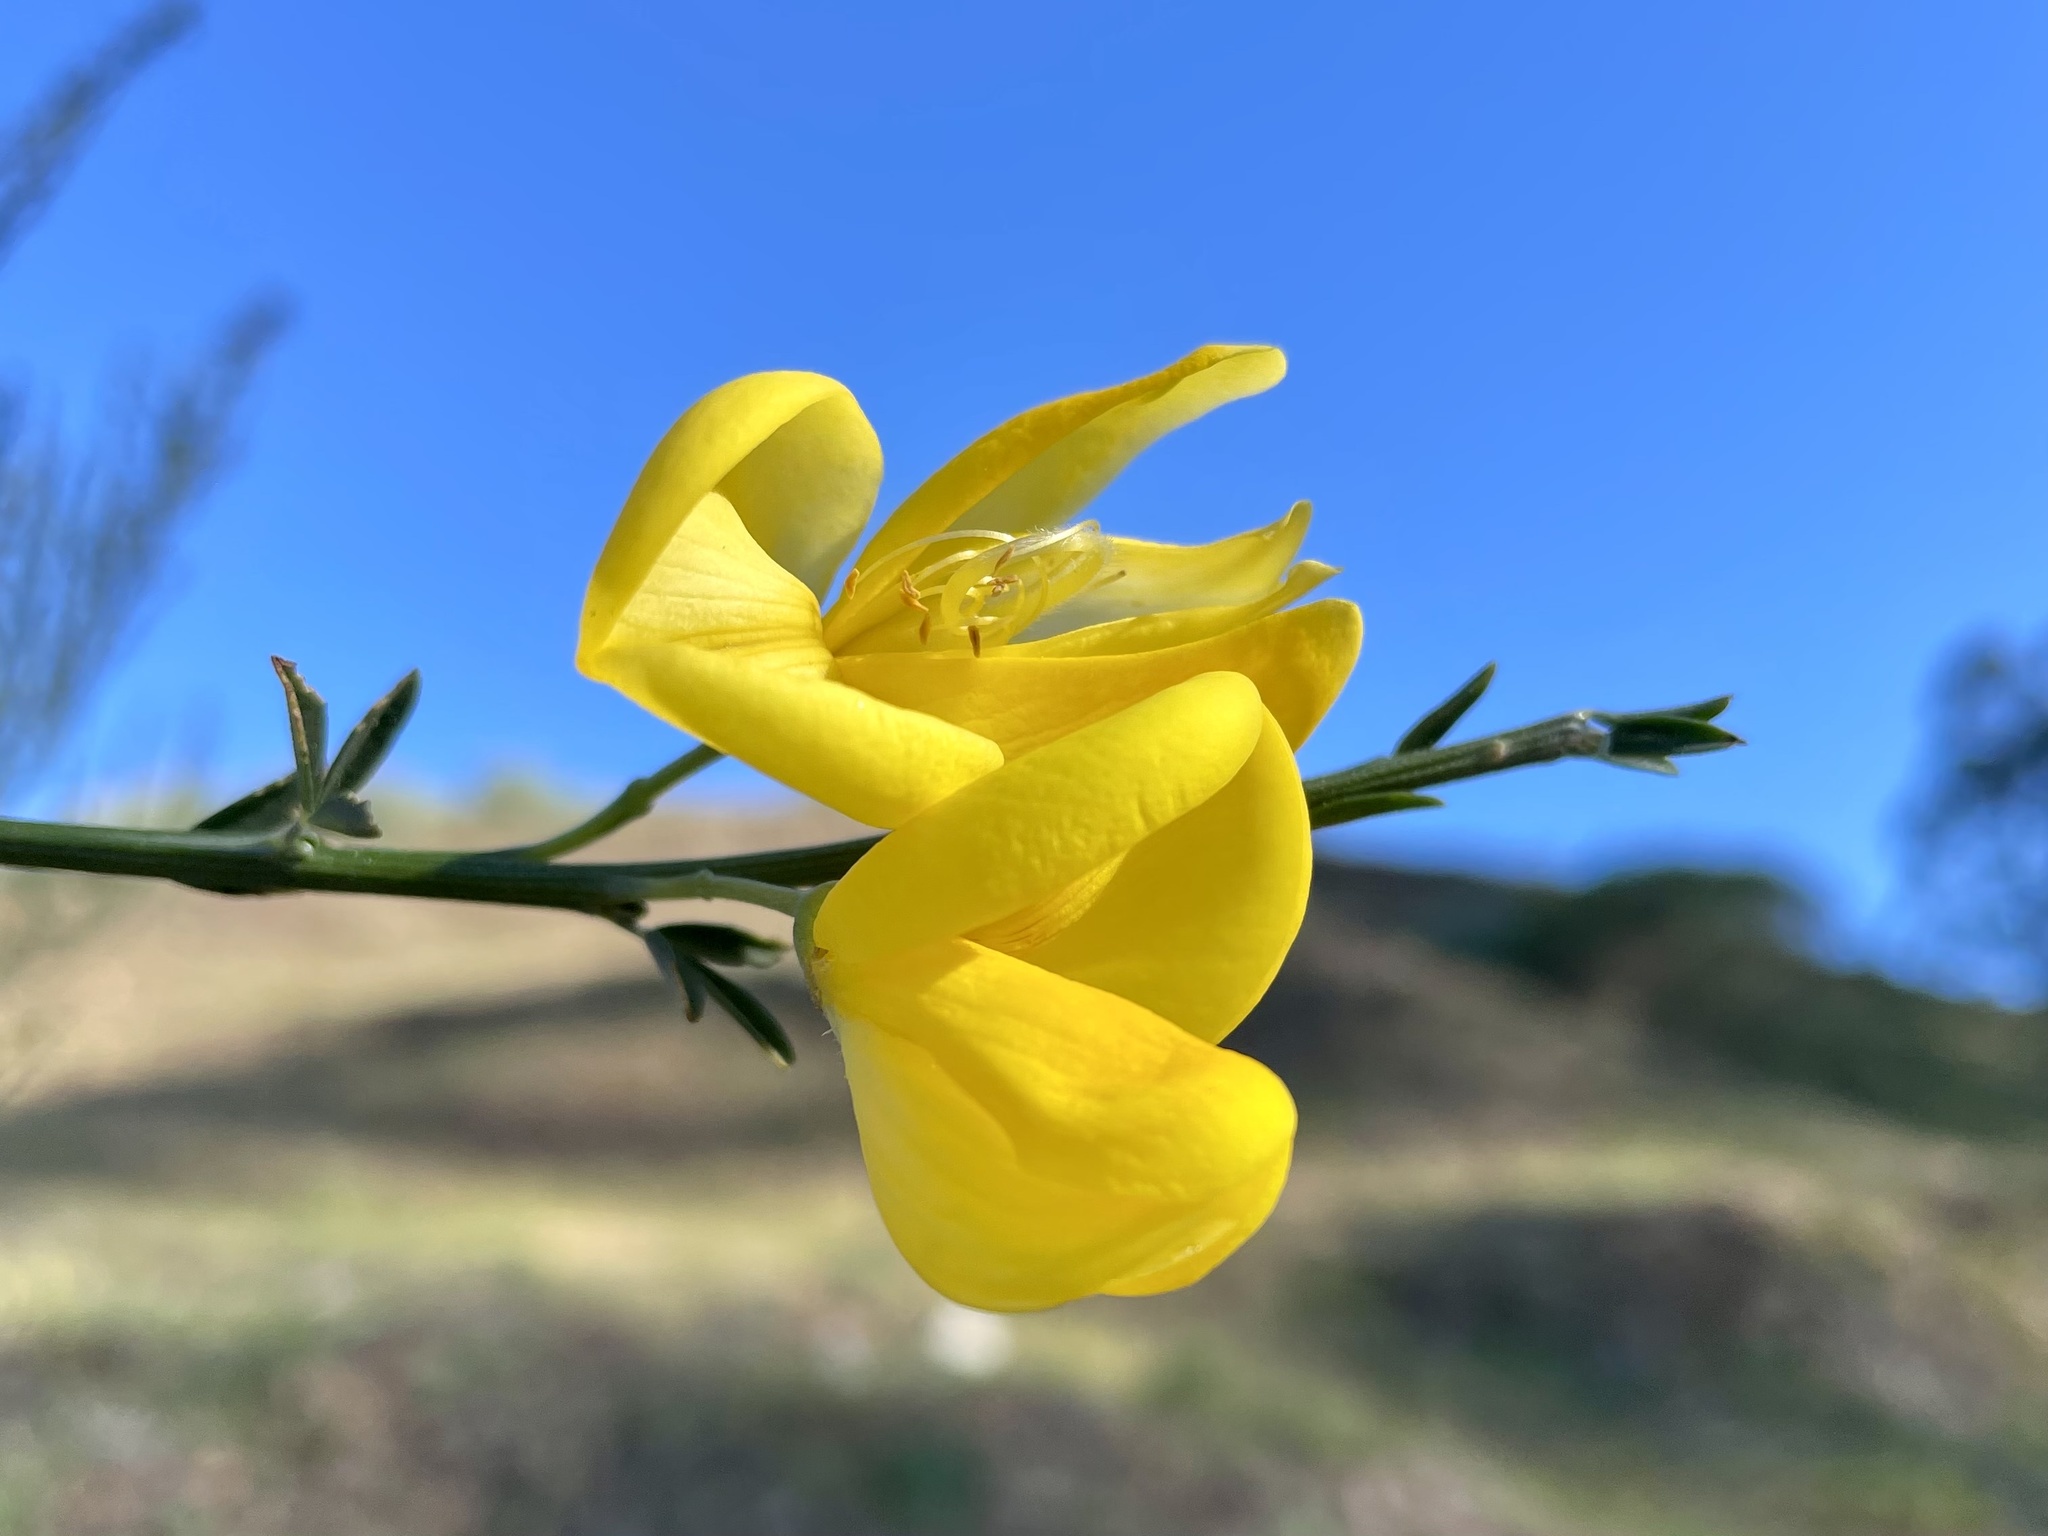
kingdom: Plantae
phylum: Tracheophyta
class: Magnoliopsida
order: Fabales
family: Fabaceae
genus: Cytisus
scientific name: Cytisus striatus
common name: Hairy-fruited broom
